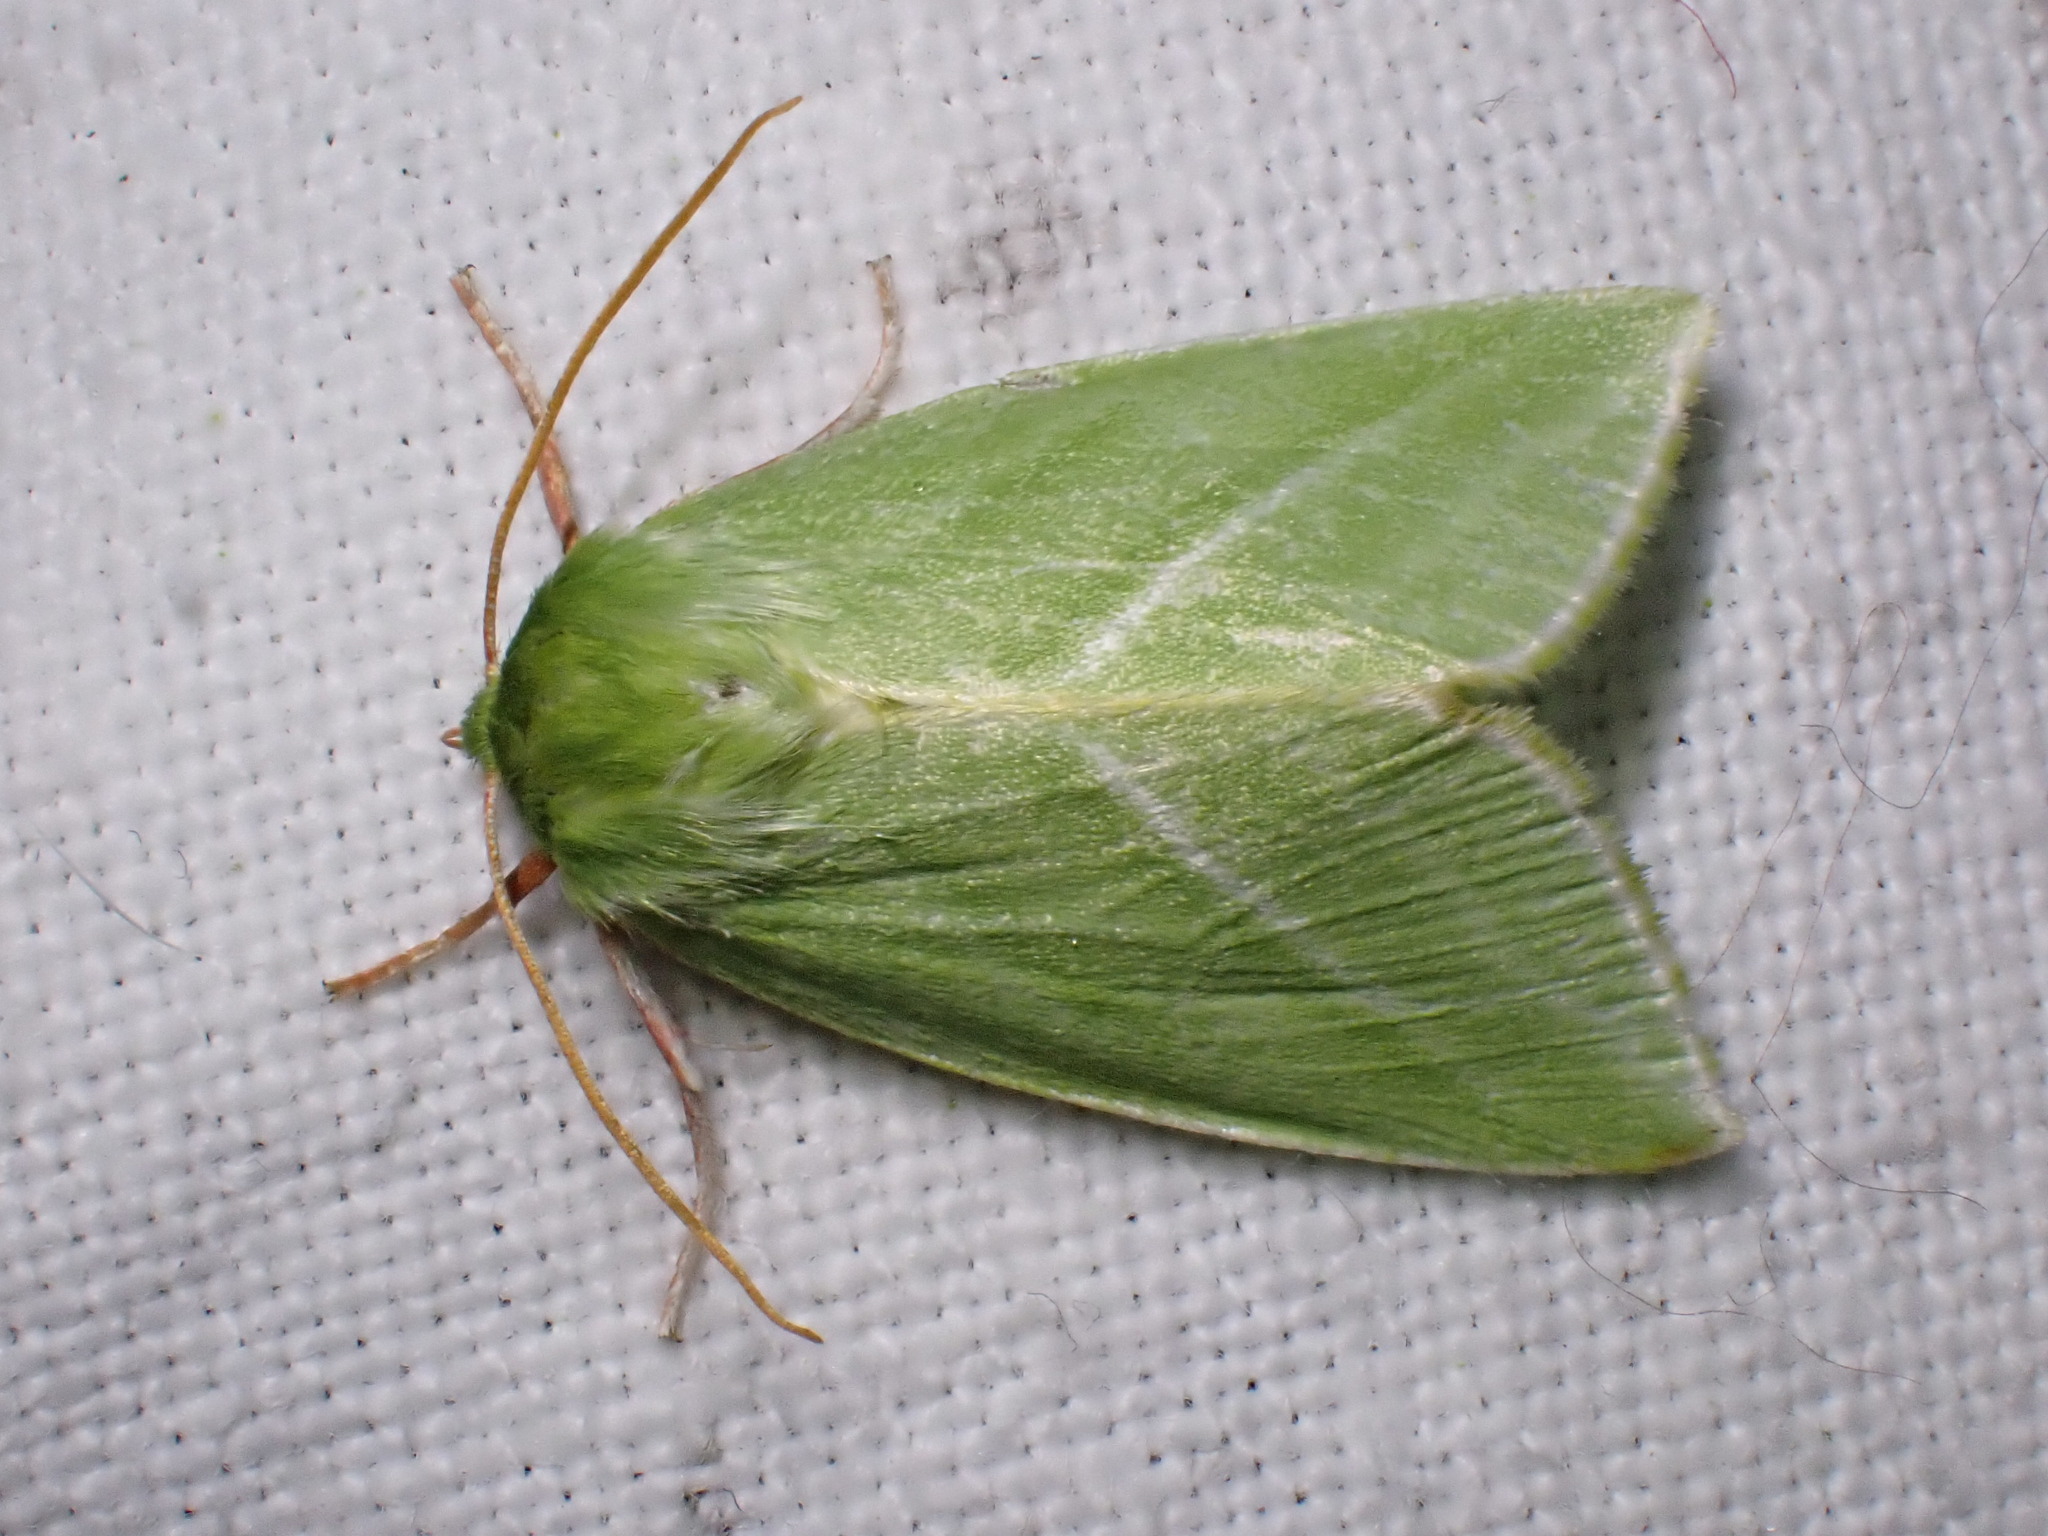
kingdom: Animalia
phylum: Arthropoda
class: Insecta
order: Lepidoptera
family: Nolidae
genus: Pseudoips
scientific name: Pseudoips prasinana
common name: Green silver-lines
